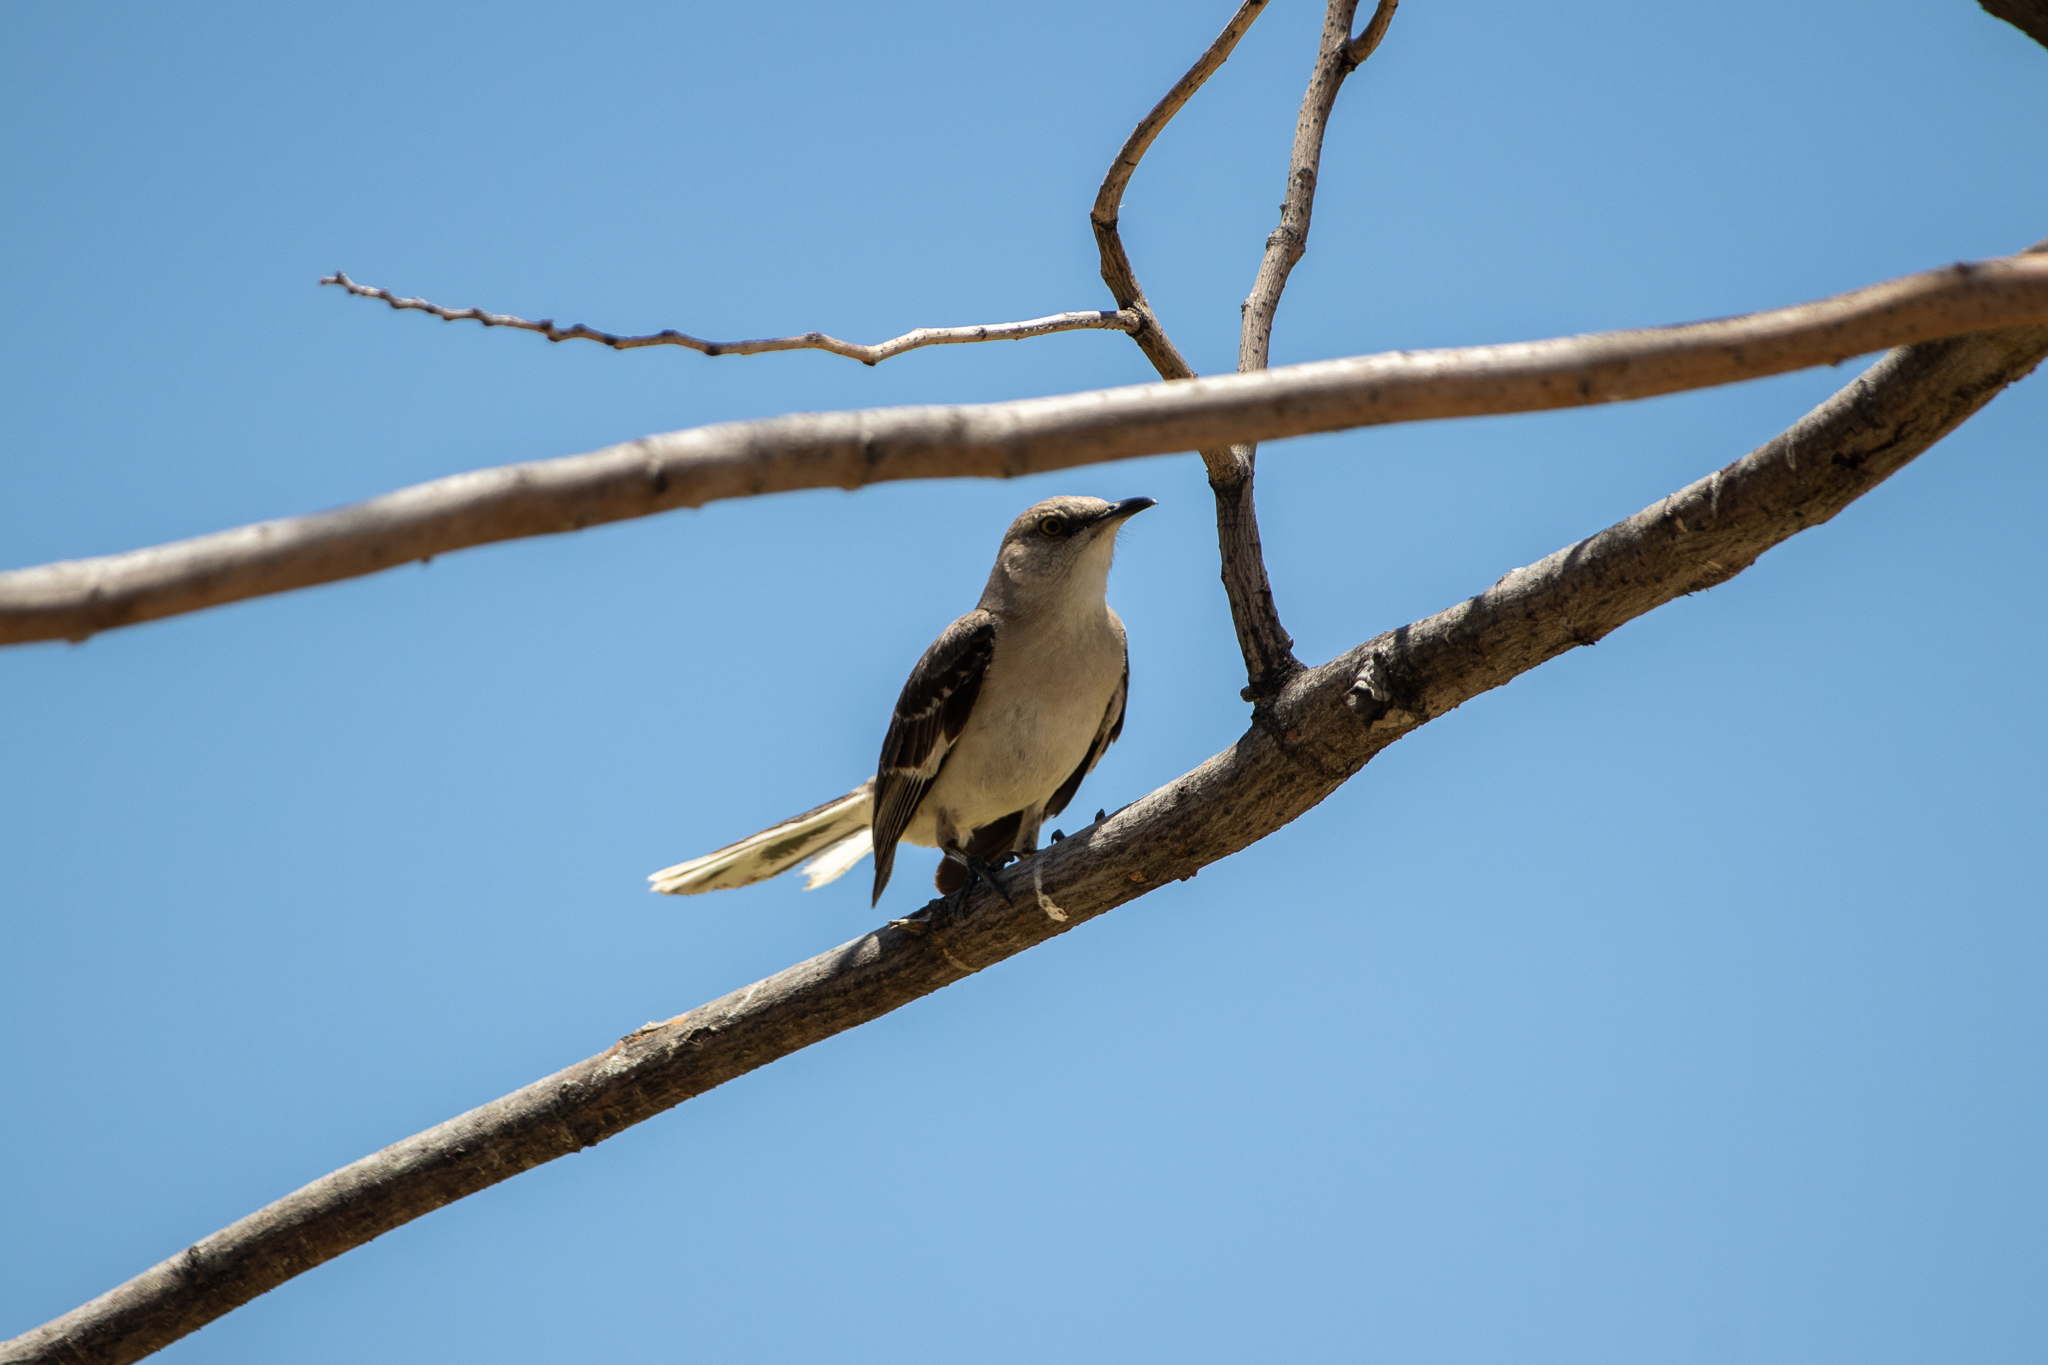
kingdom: Animalia
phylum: Chordata
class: Aves
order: Passeriformes
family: Mimidae
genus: Mimus
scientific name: Mimus polyglottos
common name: Northern mockingbird
